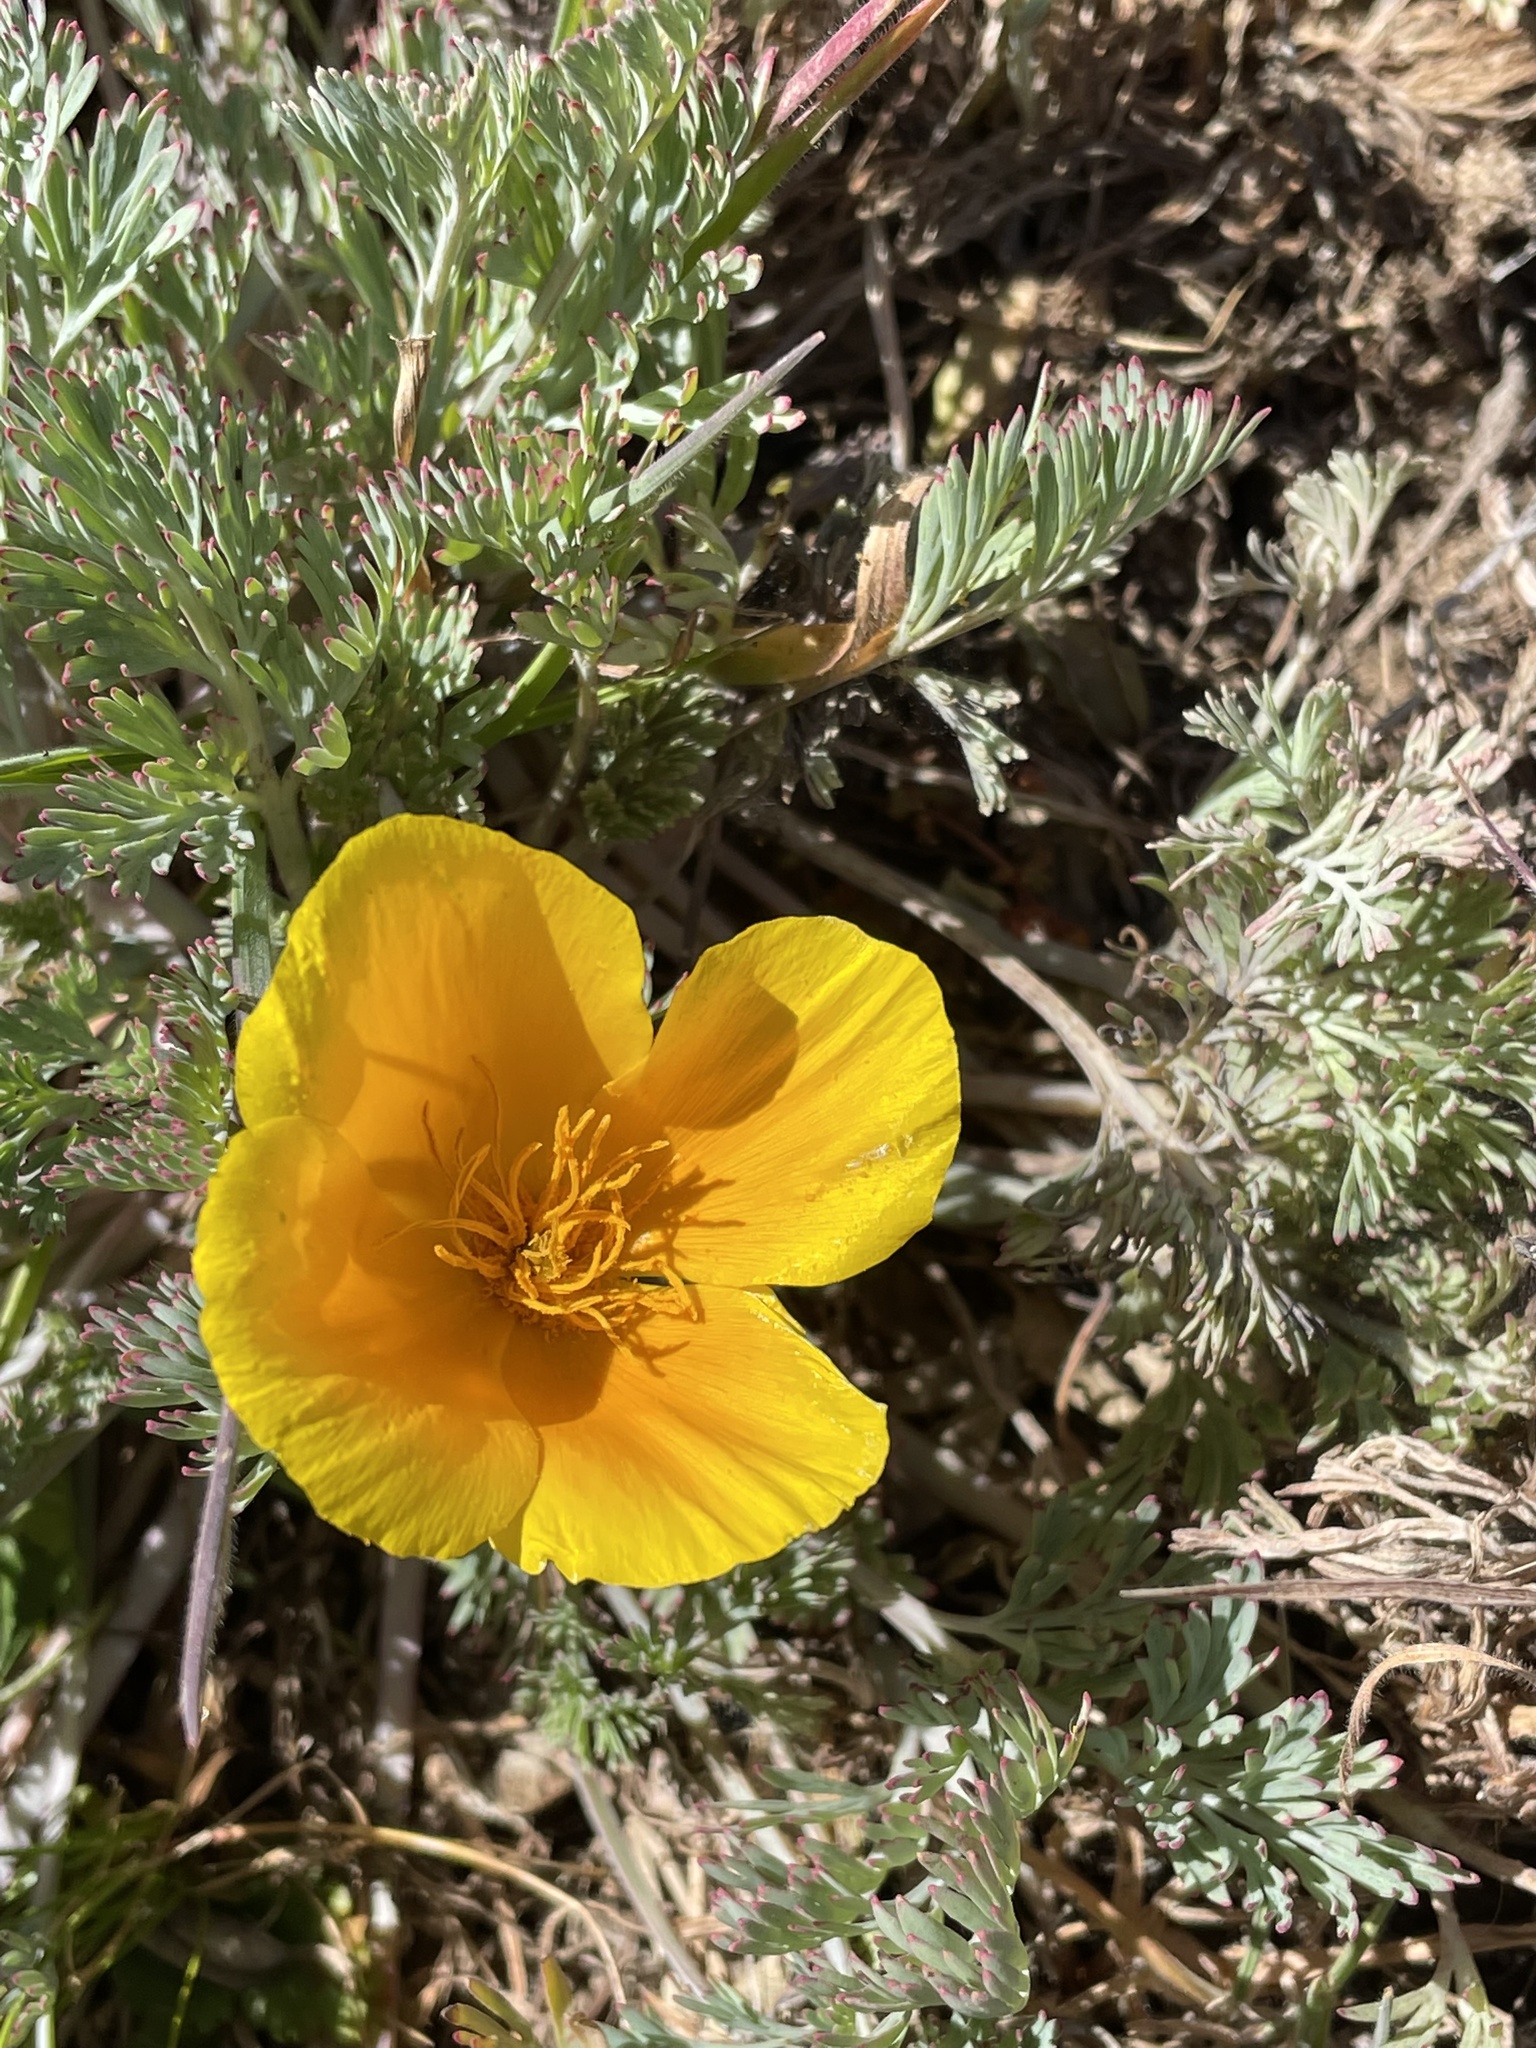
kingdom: Plantae
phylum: Tracheophyta
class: Magnoliopsida
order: Ranunculales
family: Papaveraceae
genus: Eschscholzia
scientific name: Eschscholzia caespitosa
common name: Tufted california-poppy
